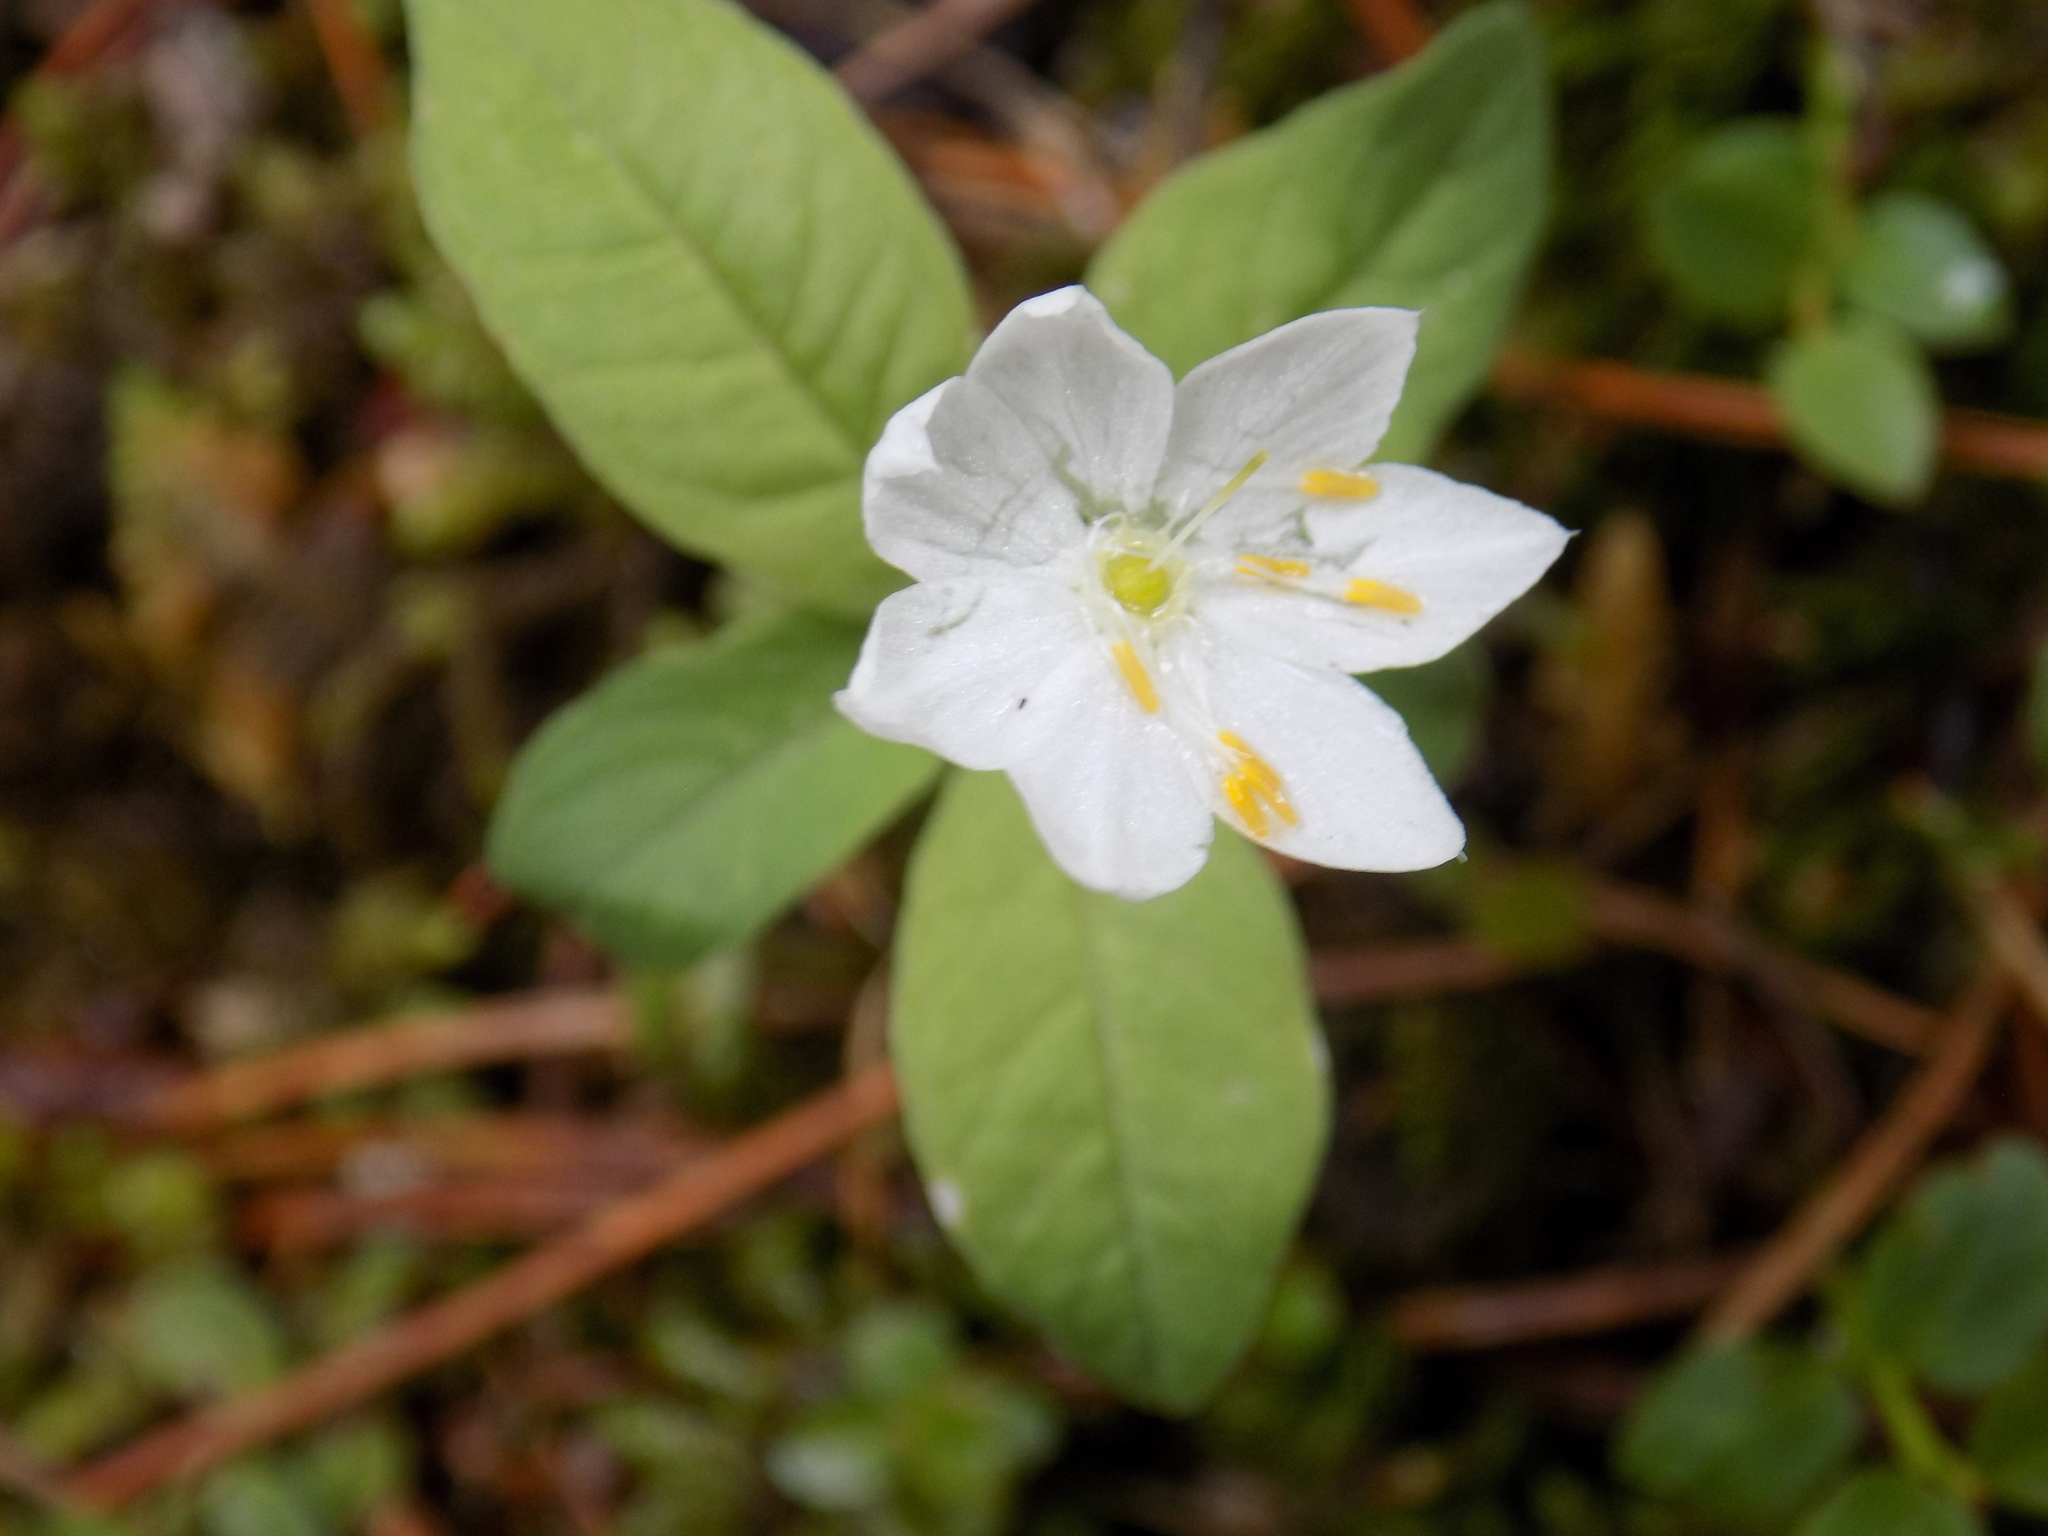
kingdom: Plantae
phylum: Tracheophyta
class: Magnoliopsida
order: Ericales
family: Primulaceae
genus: Lysimachia
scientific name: Lysimachia europaea
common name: Arctic starflower
